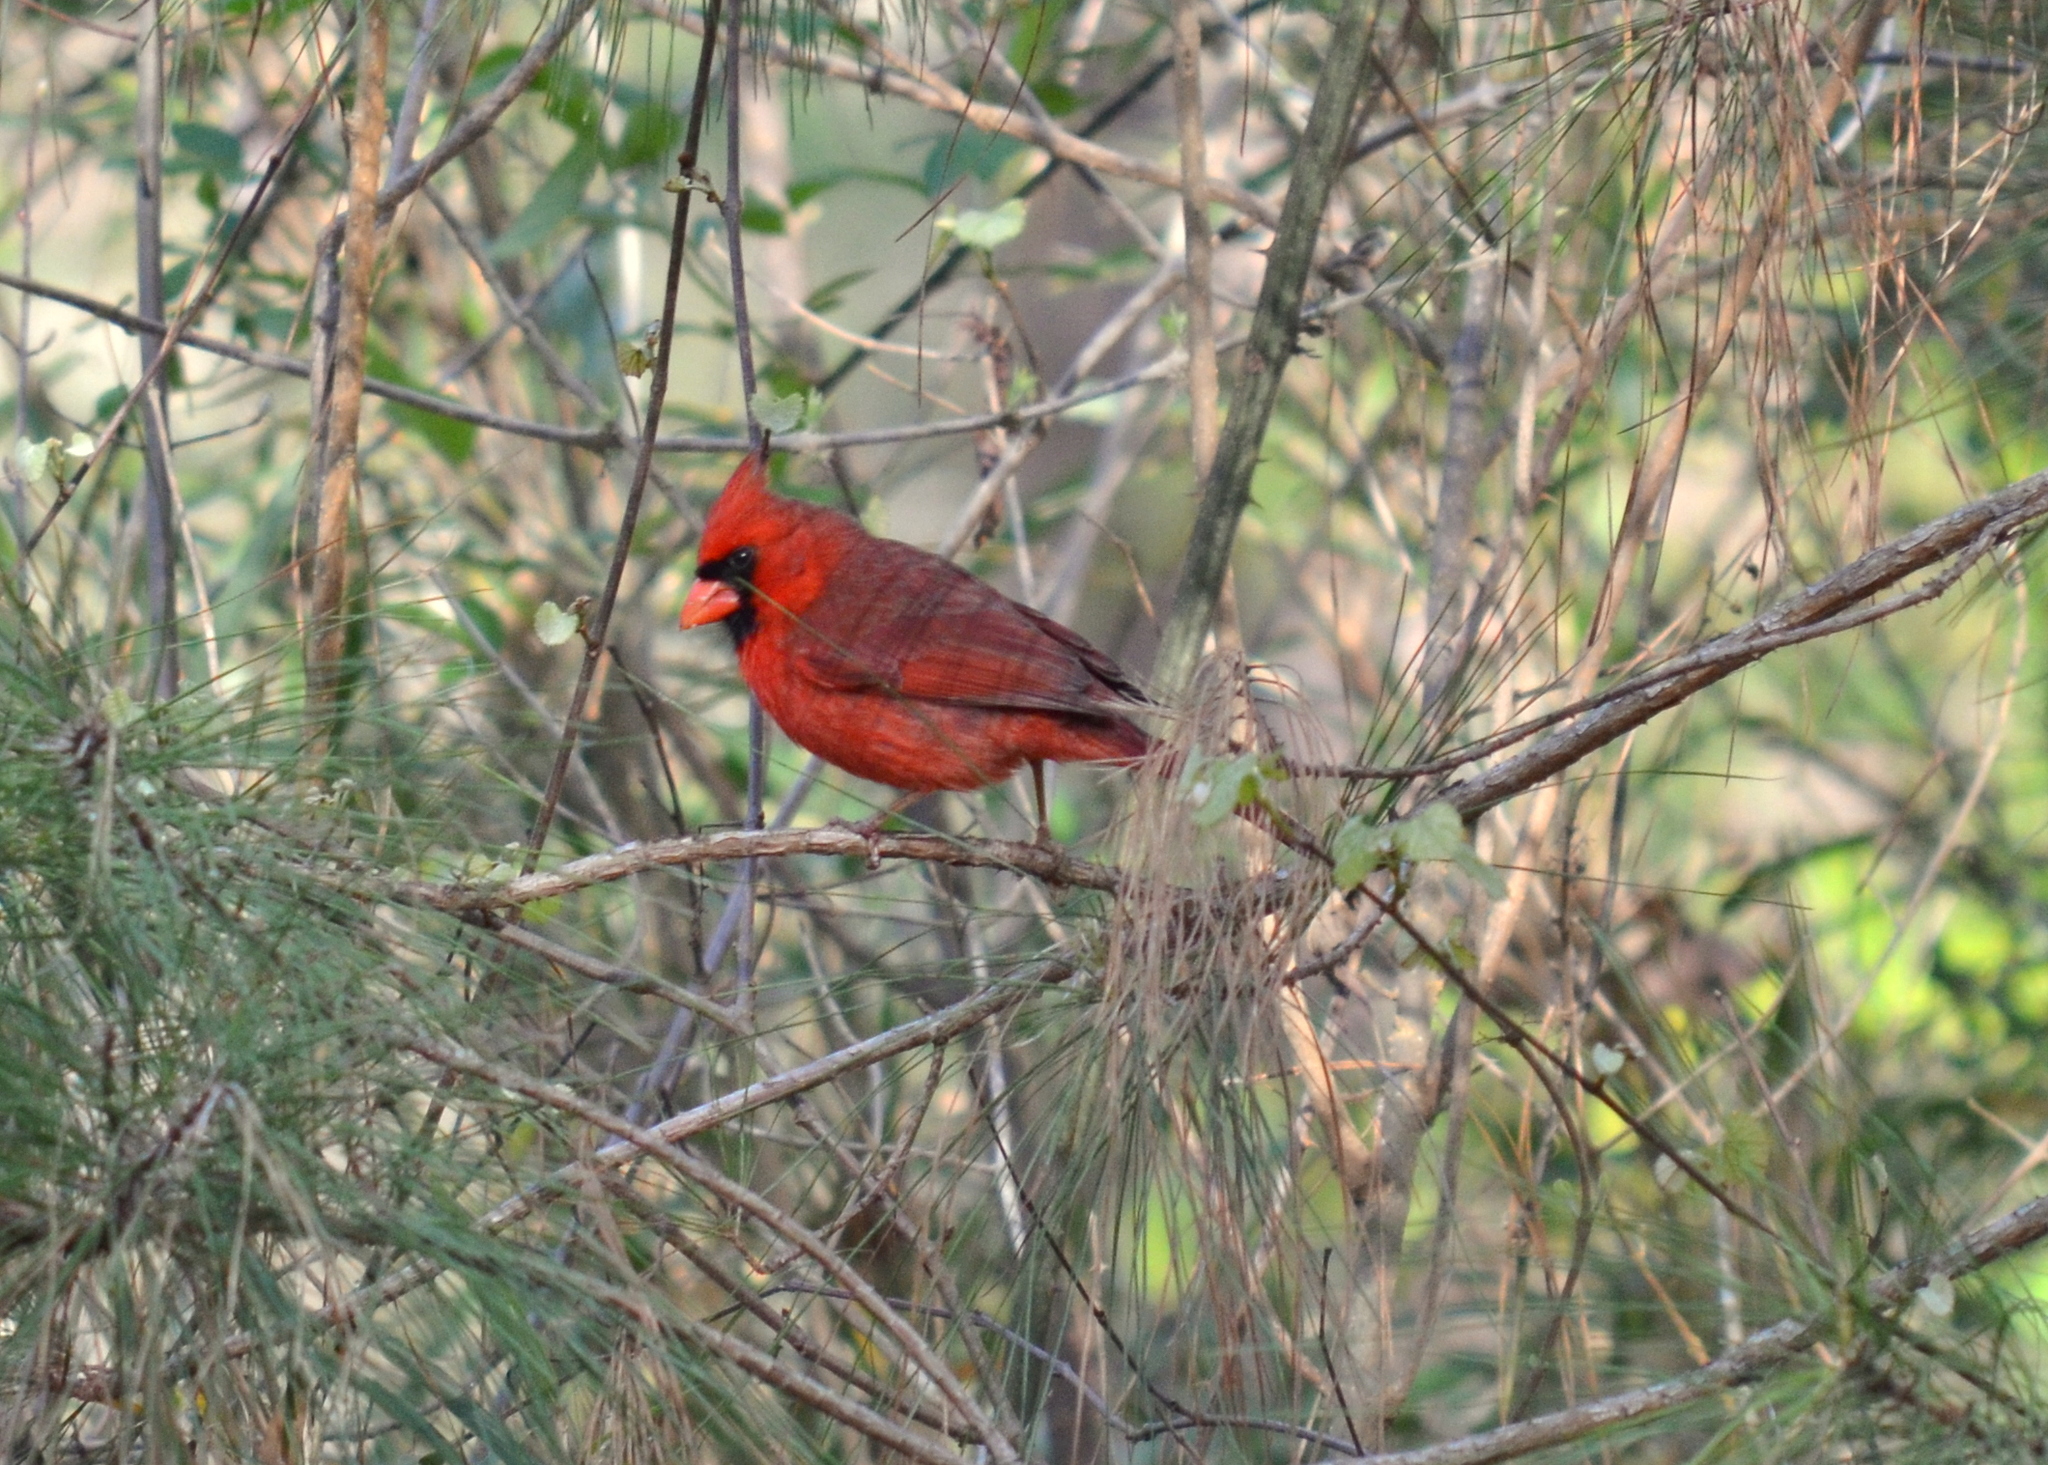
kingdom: Animalia
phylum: Chordata
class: Aves
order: Passeriformes
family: Cardinalidae
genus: Cardinalis
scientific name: Cardinalis cardinalis
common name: Northern cardinal
